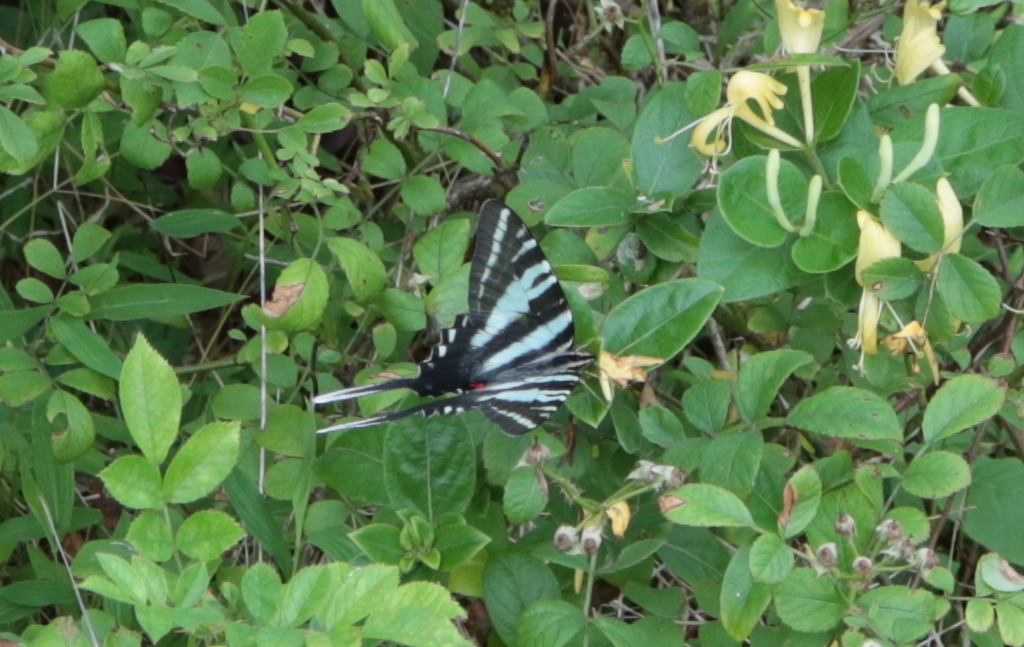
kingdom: Animalia
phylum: Arthropoda
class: Insecta
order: Lepidoptera
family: Papilionidae
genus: Protographium
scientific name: Protographium marcellus
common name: Zebra swallowtail
